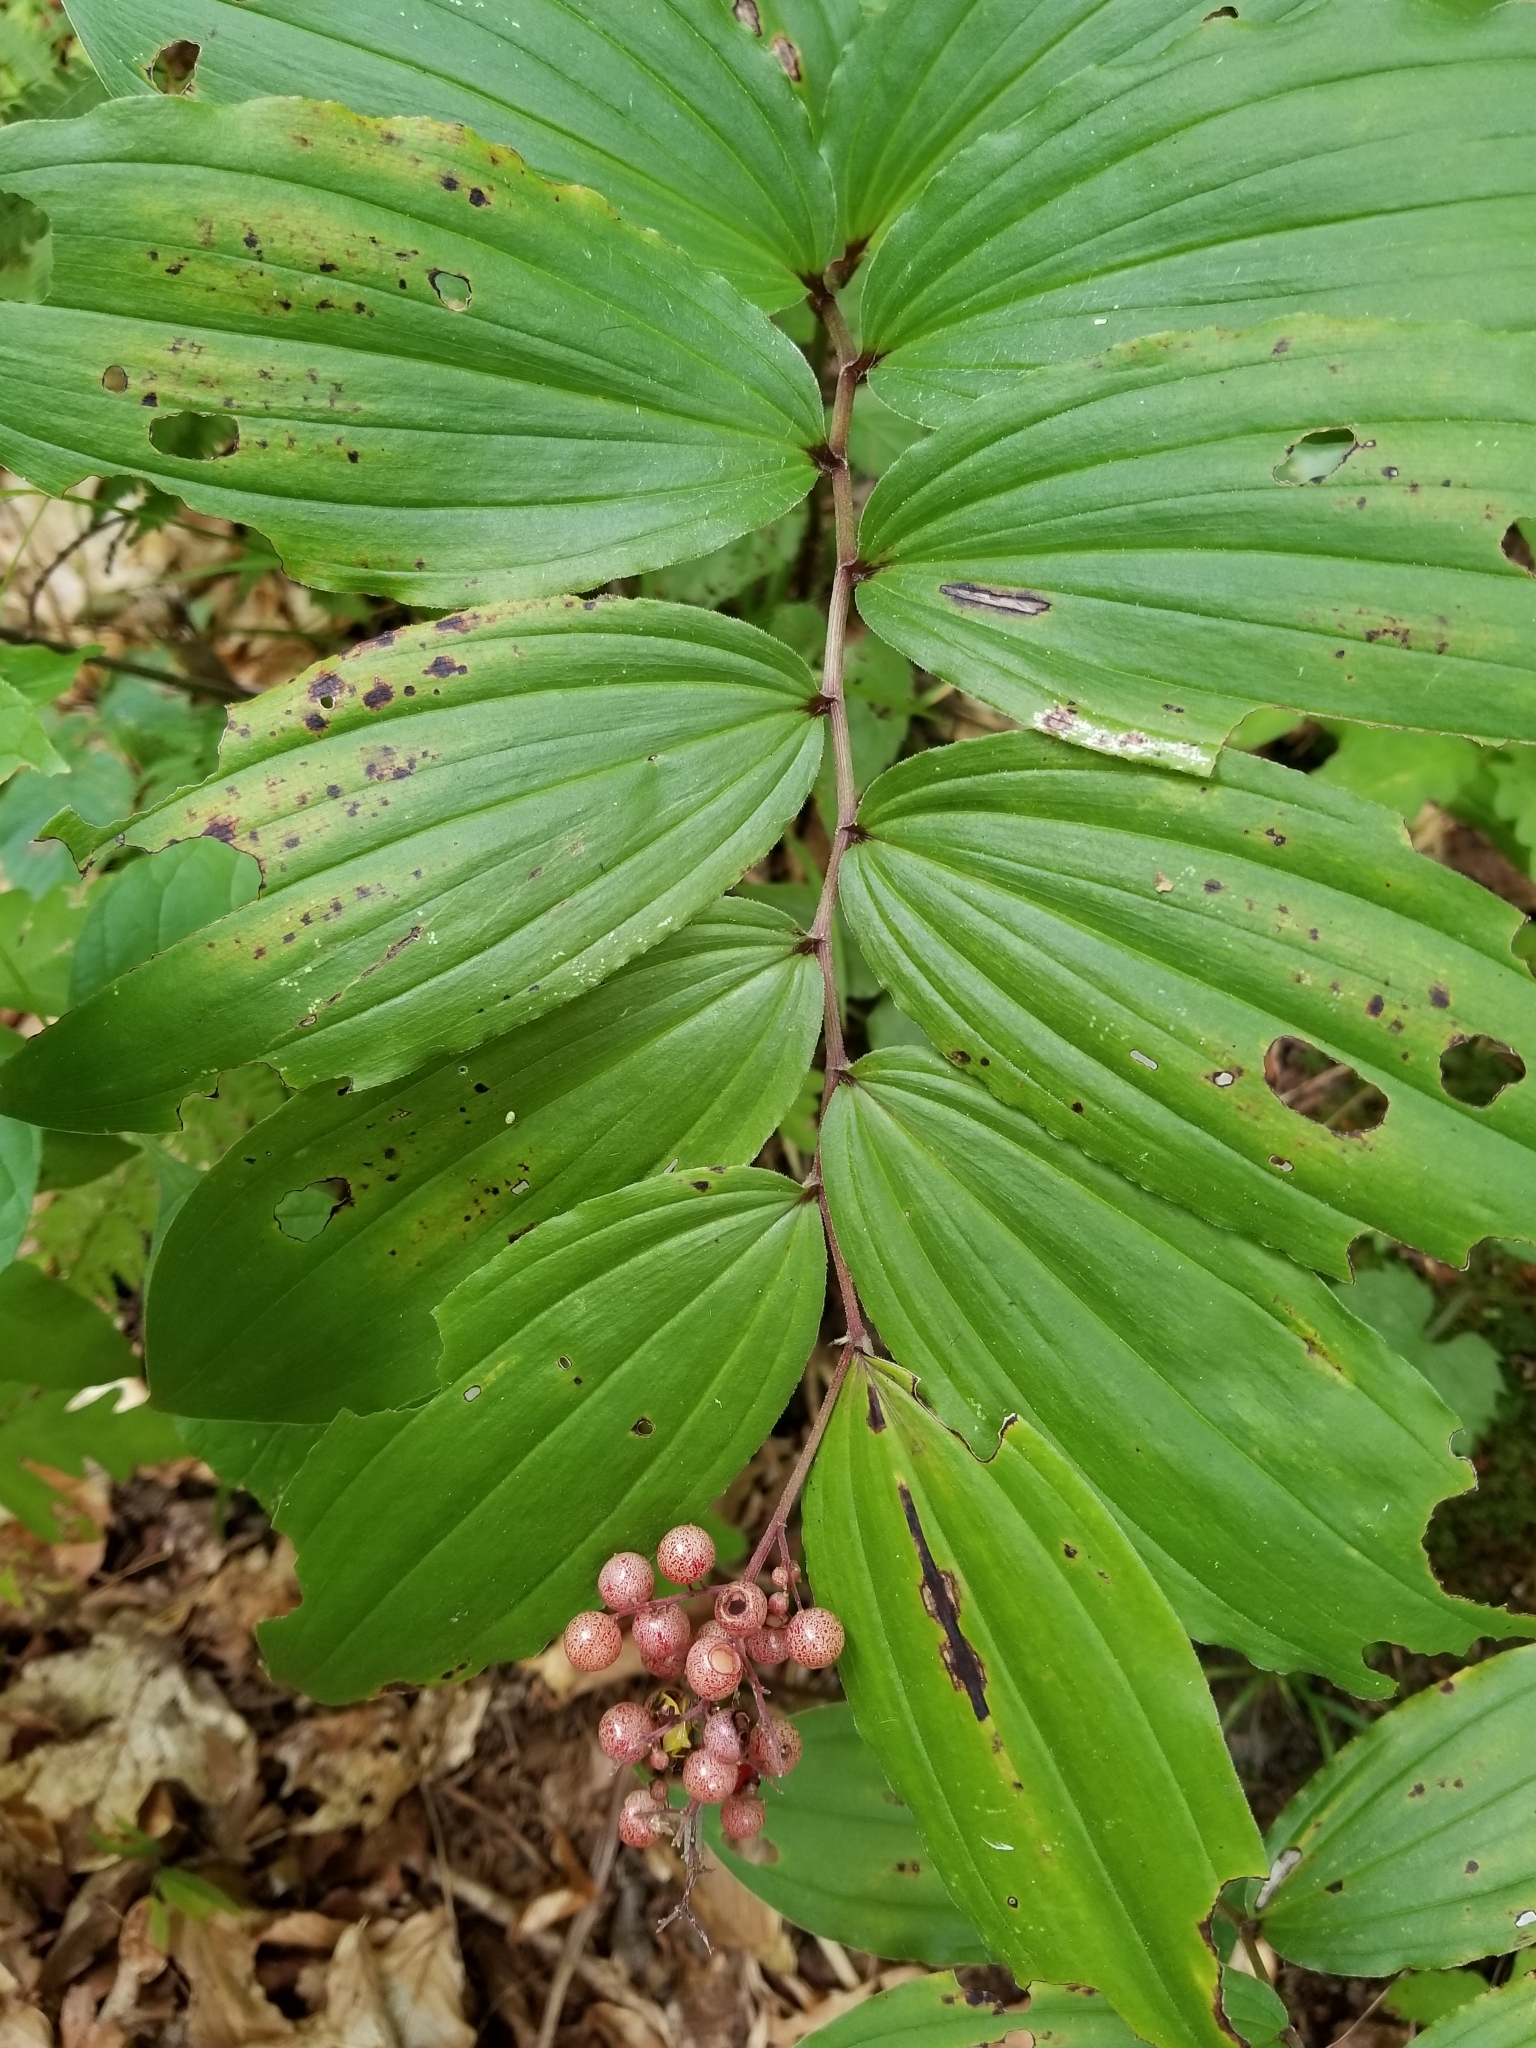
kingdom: Plantae
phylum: Tracheophyta
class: Liliopsida
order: Asparagales
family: Asparagaceae
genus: Maianthemum
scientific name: Maianthemum racemosum
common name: False spikenard
